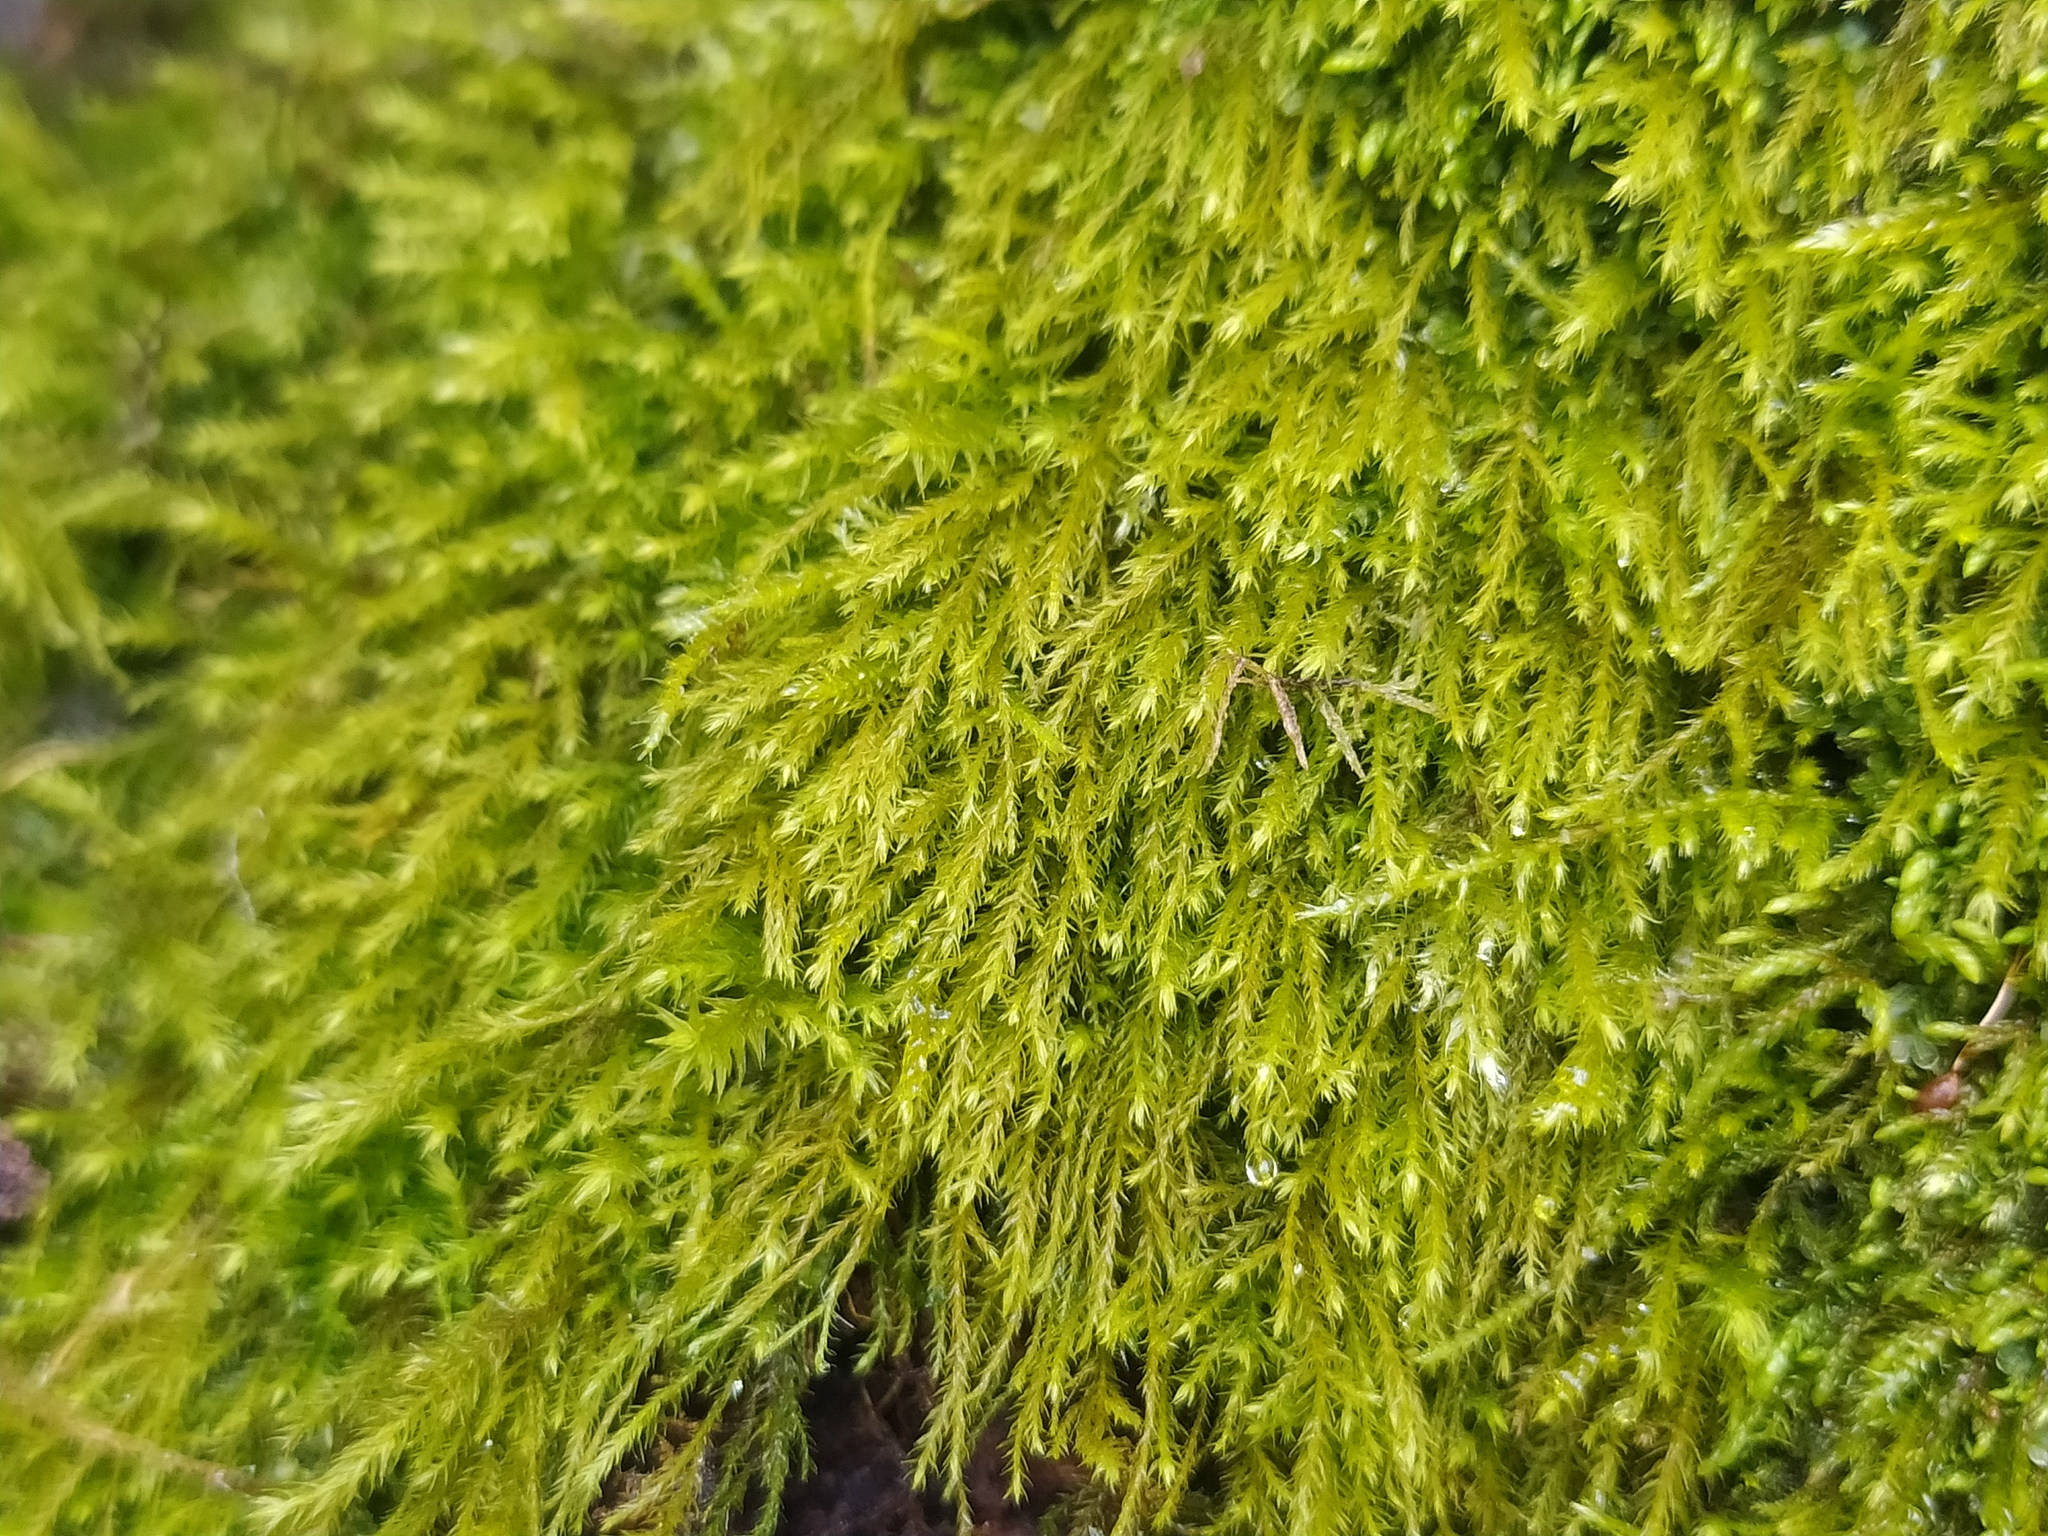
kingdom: Plantae
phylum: Bryophyta
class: Bryopsida
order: Hypnales
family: Anomodontaceae
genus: Anomodontella
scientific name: Anomodontella longifolia
